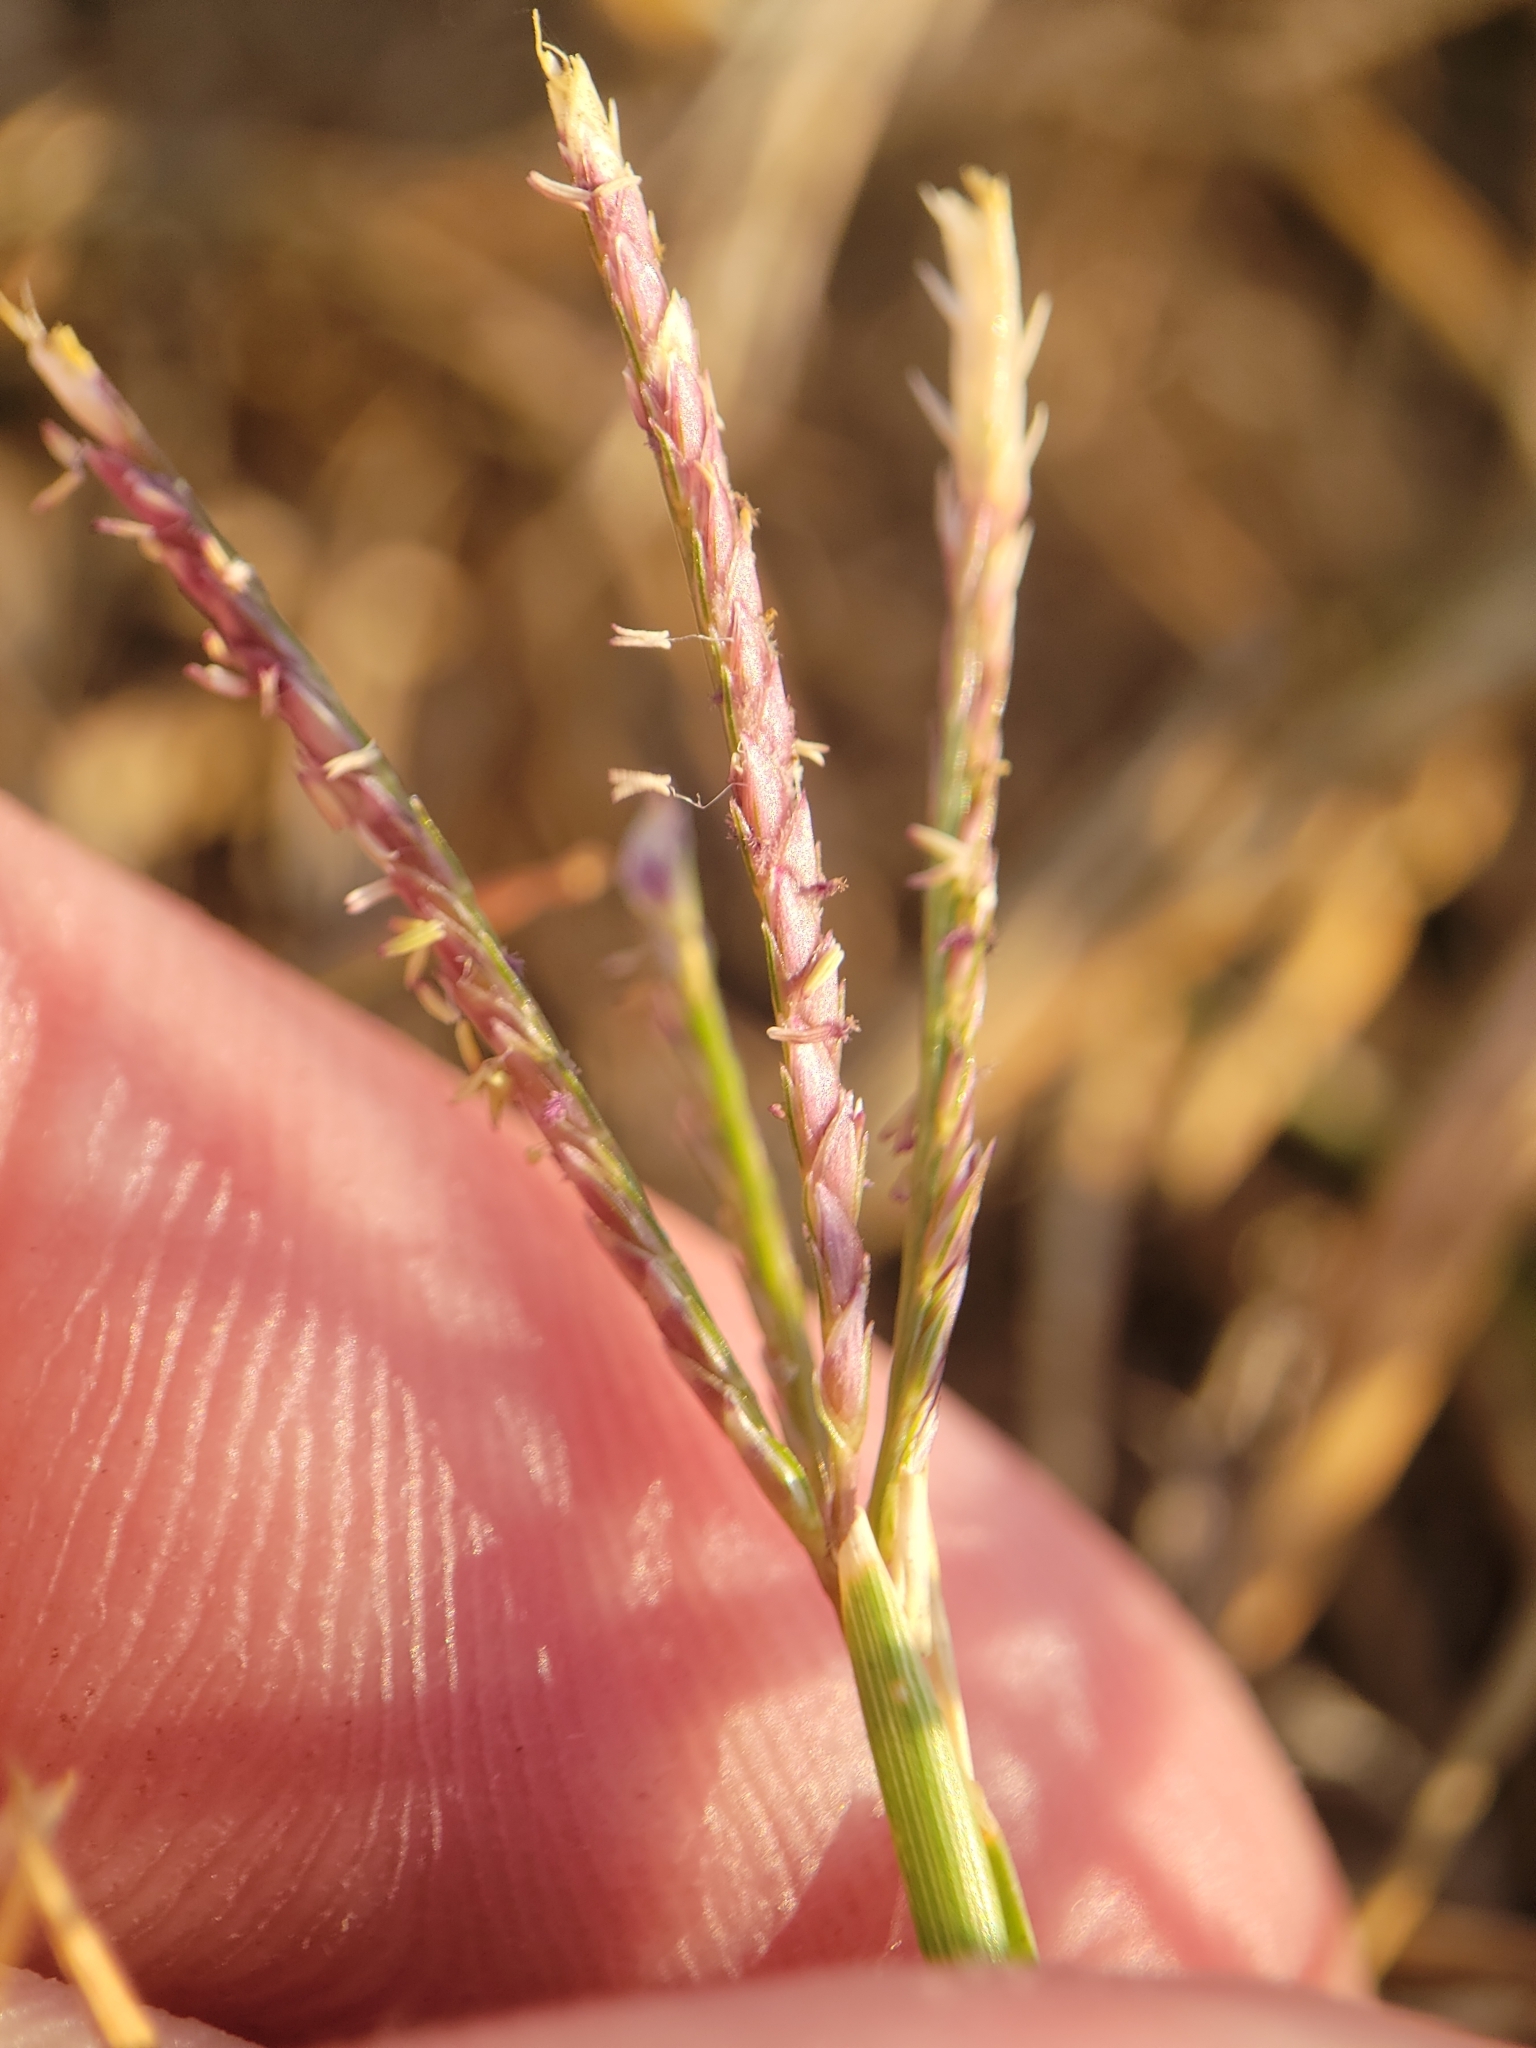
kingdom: Plantae
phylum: Tracheophyta
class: Liliopsida
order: Poales
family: Poaceae
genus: Cynodon
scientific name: Cynodon dactylon
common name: Bermuda grass
